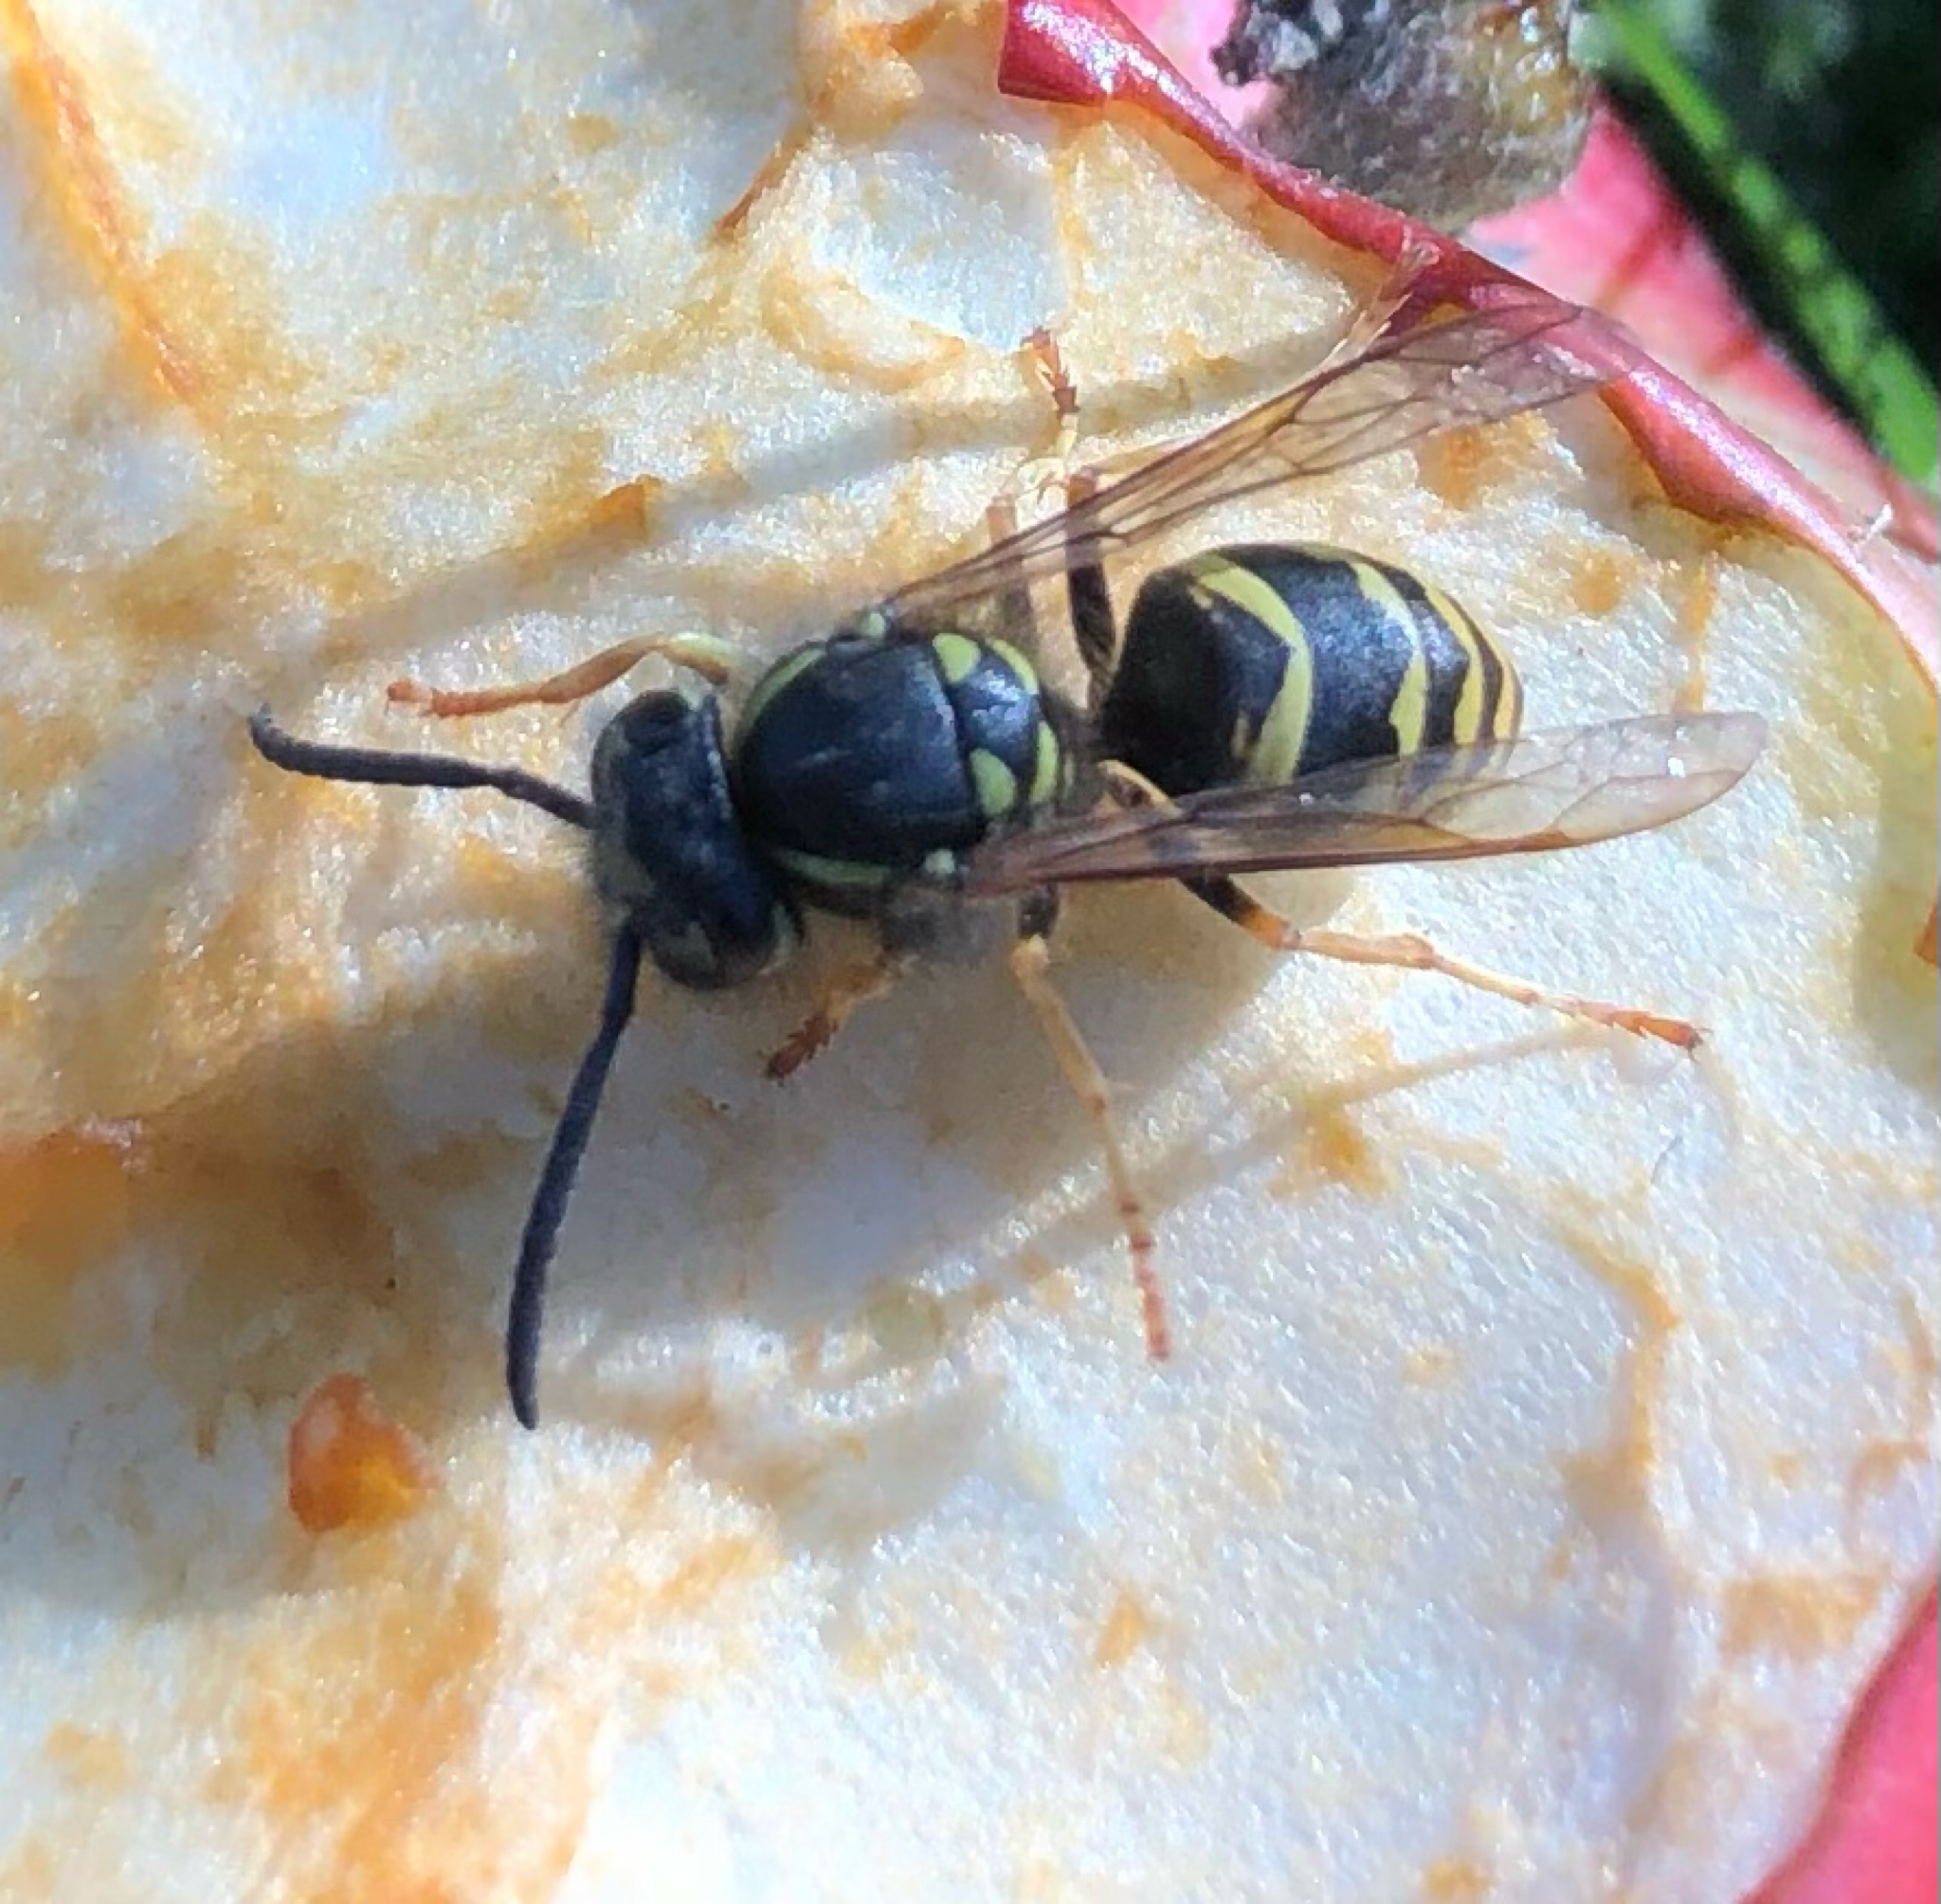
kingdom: Animalia
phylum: Arthropoda
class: Insecta
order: Hymenoptera
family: Vespidae
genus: Vespula
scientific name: Vespula vulgaris
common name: Common wasp
